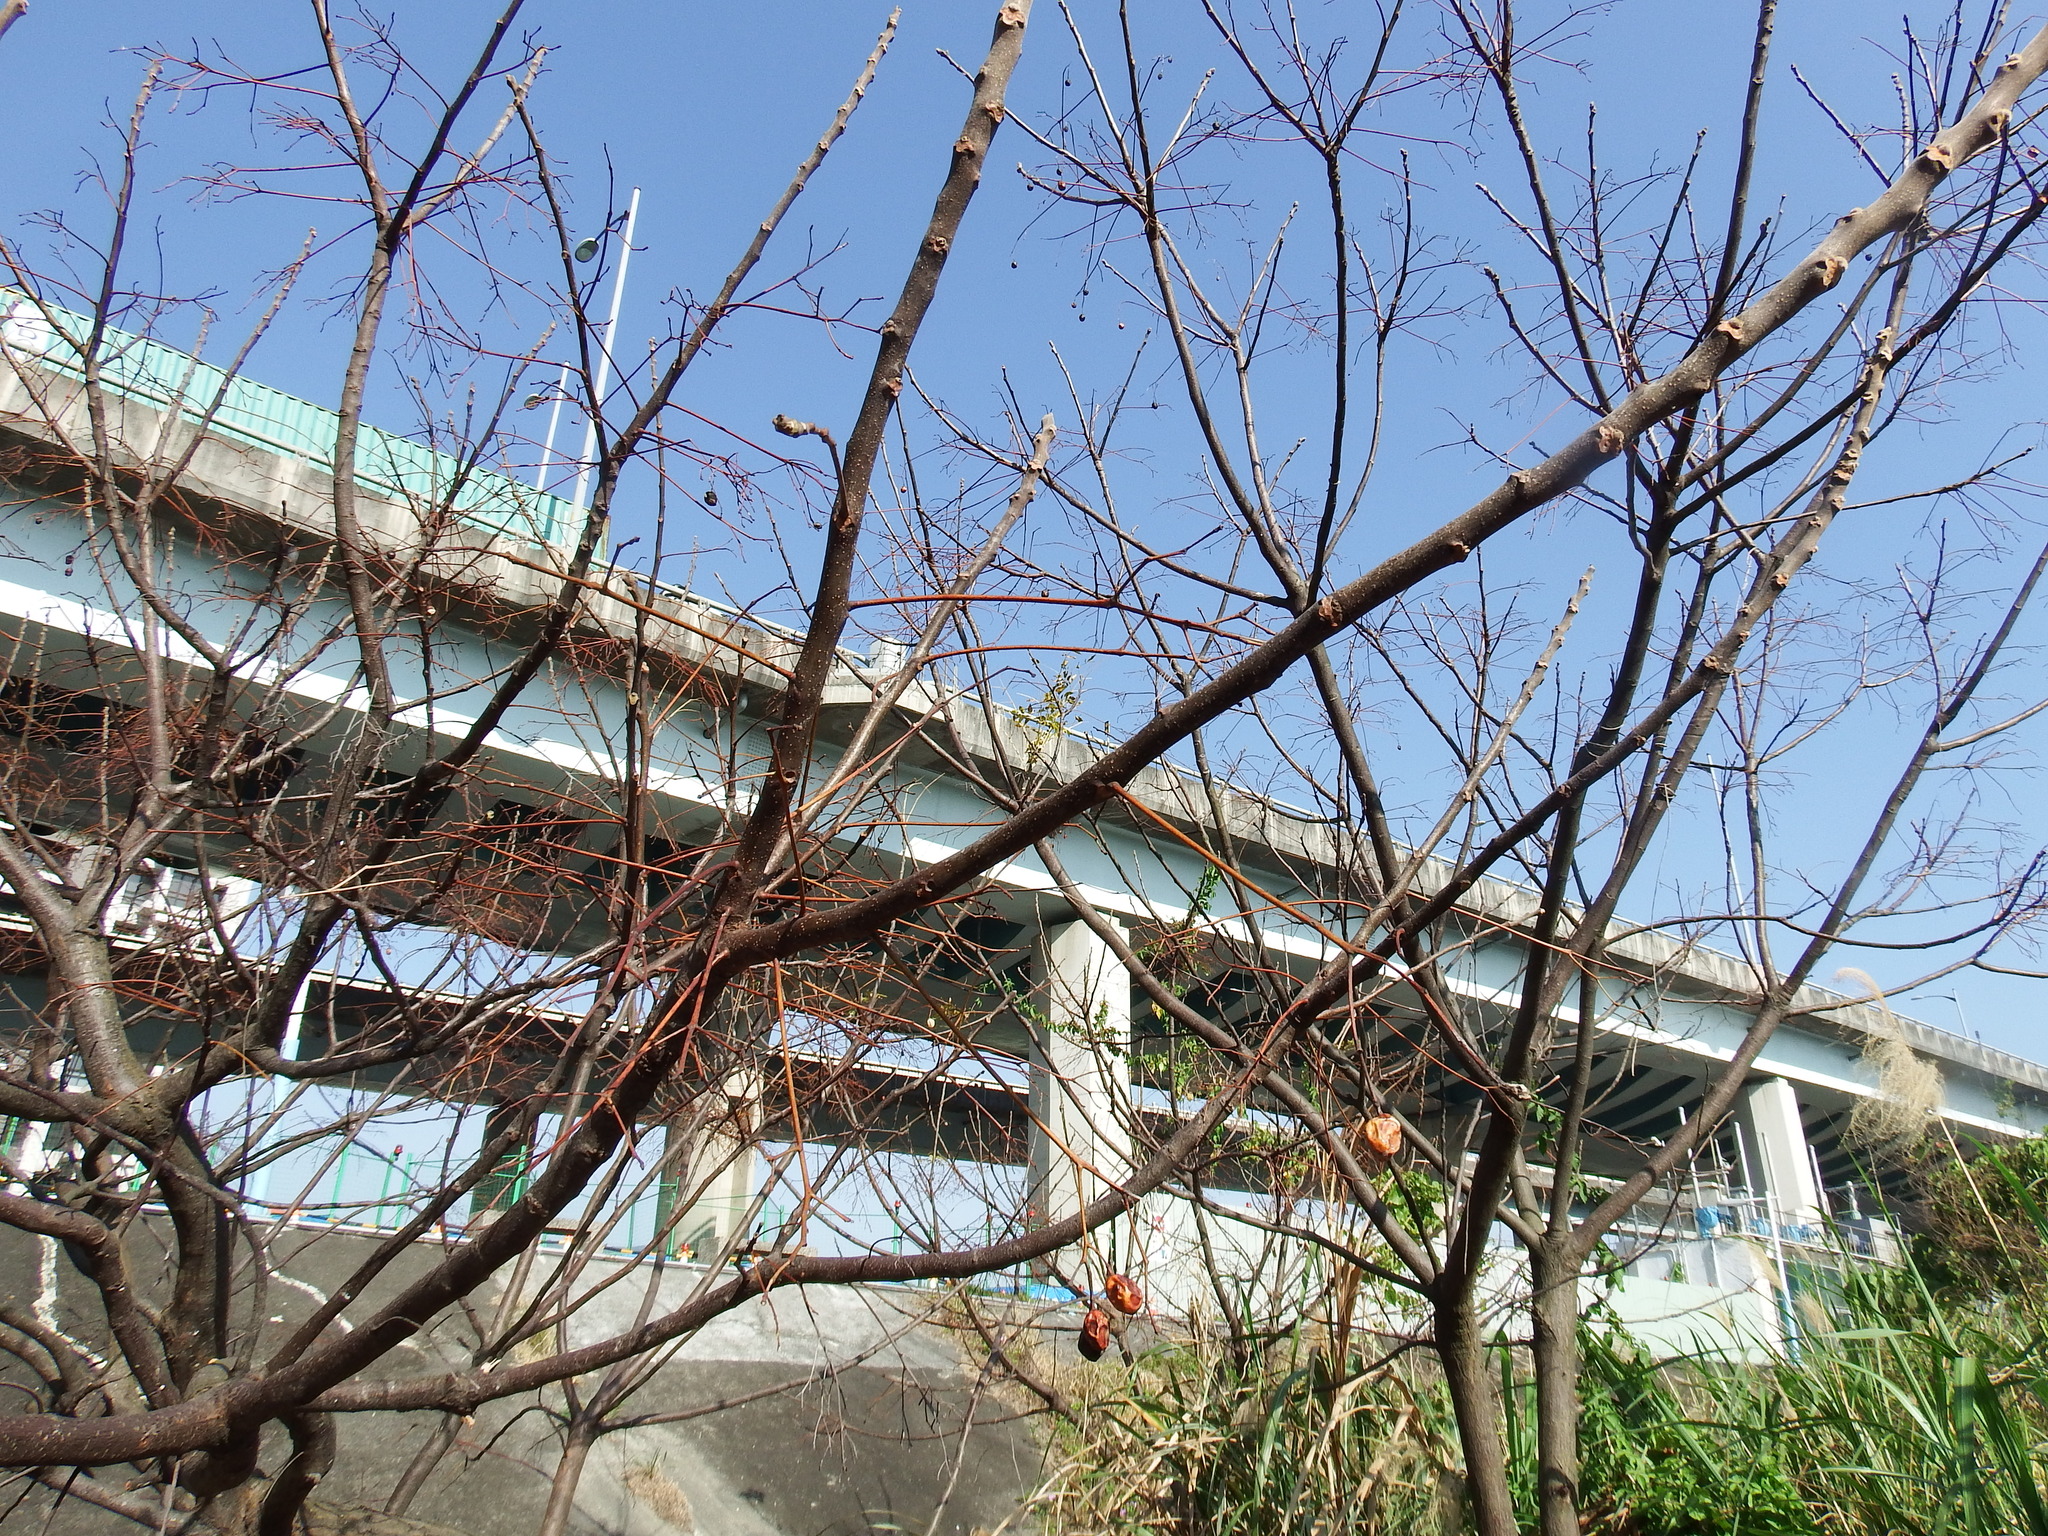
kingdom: Plantae
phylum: Tracheophyta
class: Magnoliopsida
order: Sapindales
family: Meliaceae
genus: Melia
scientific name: Melia azedarach
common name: Chinaberrytree
